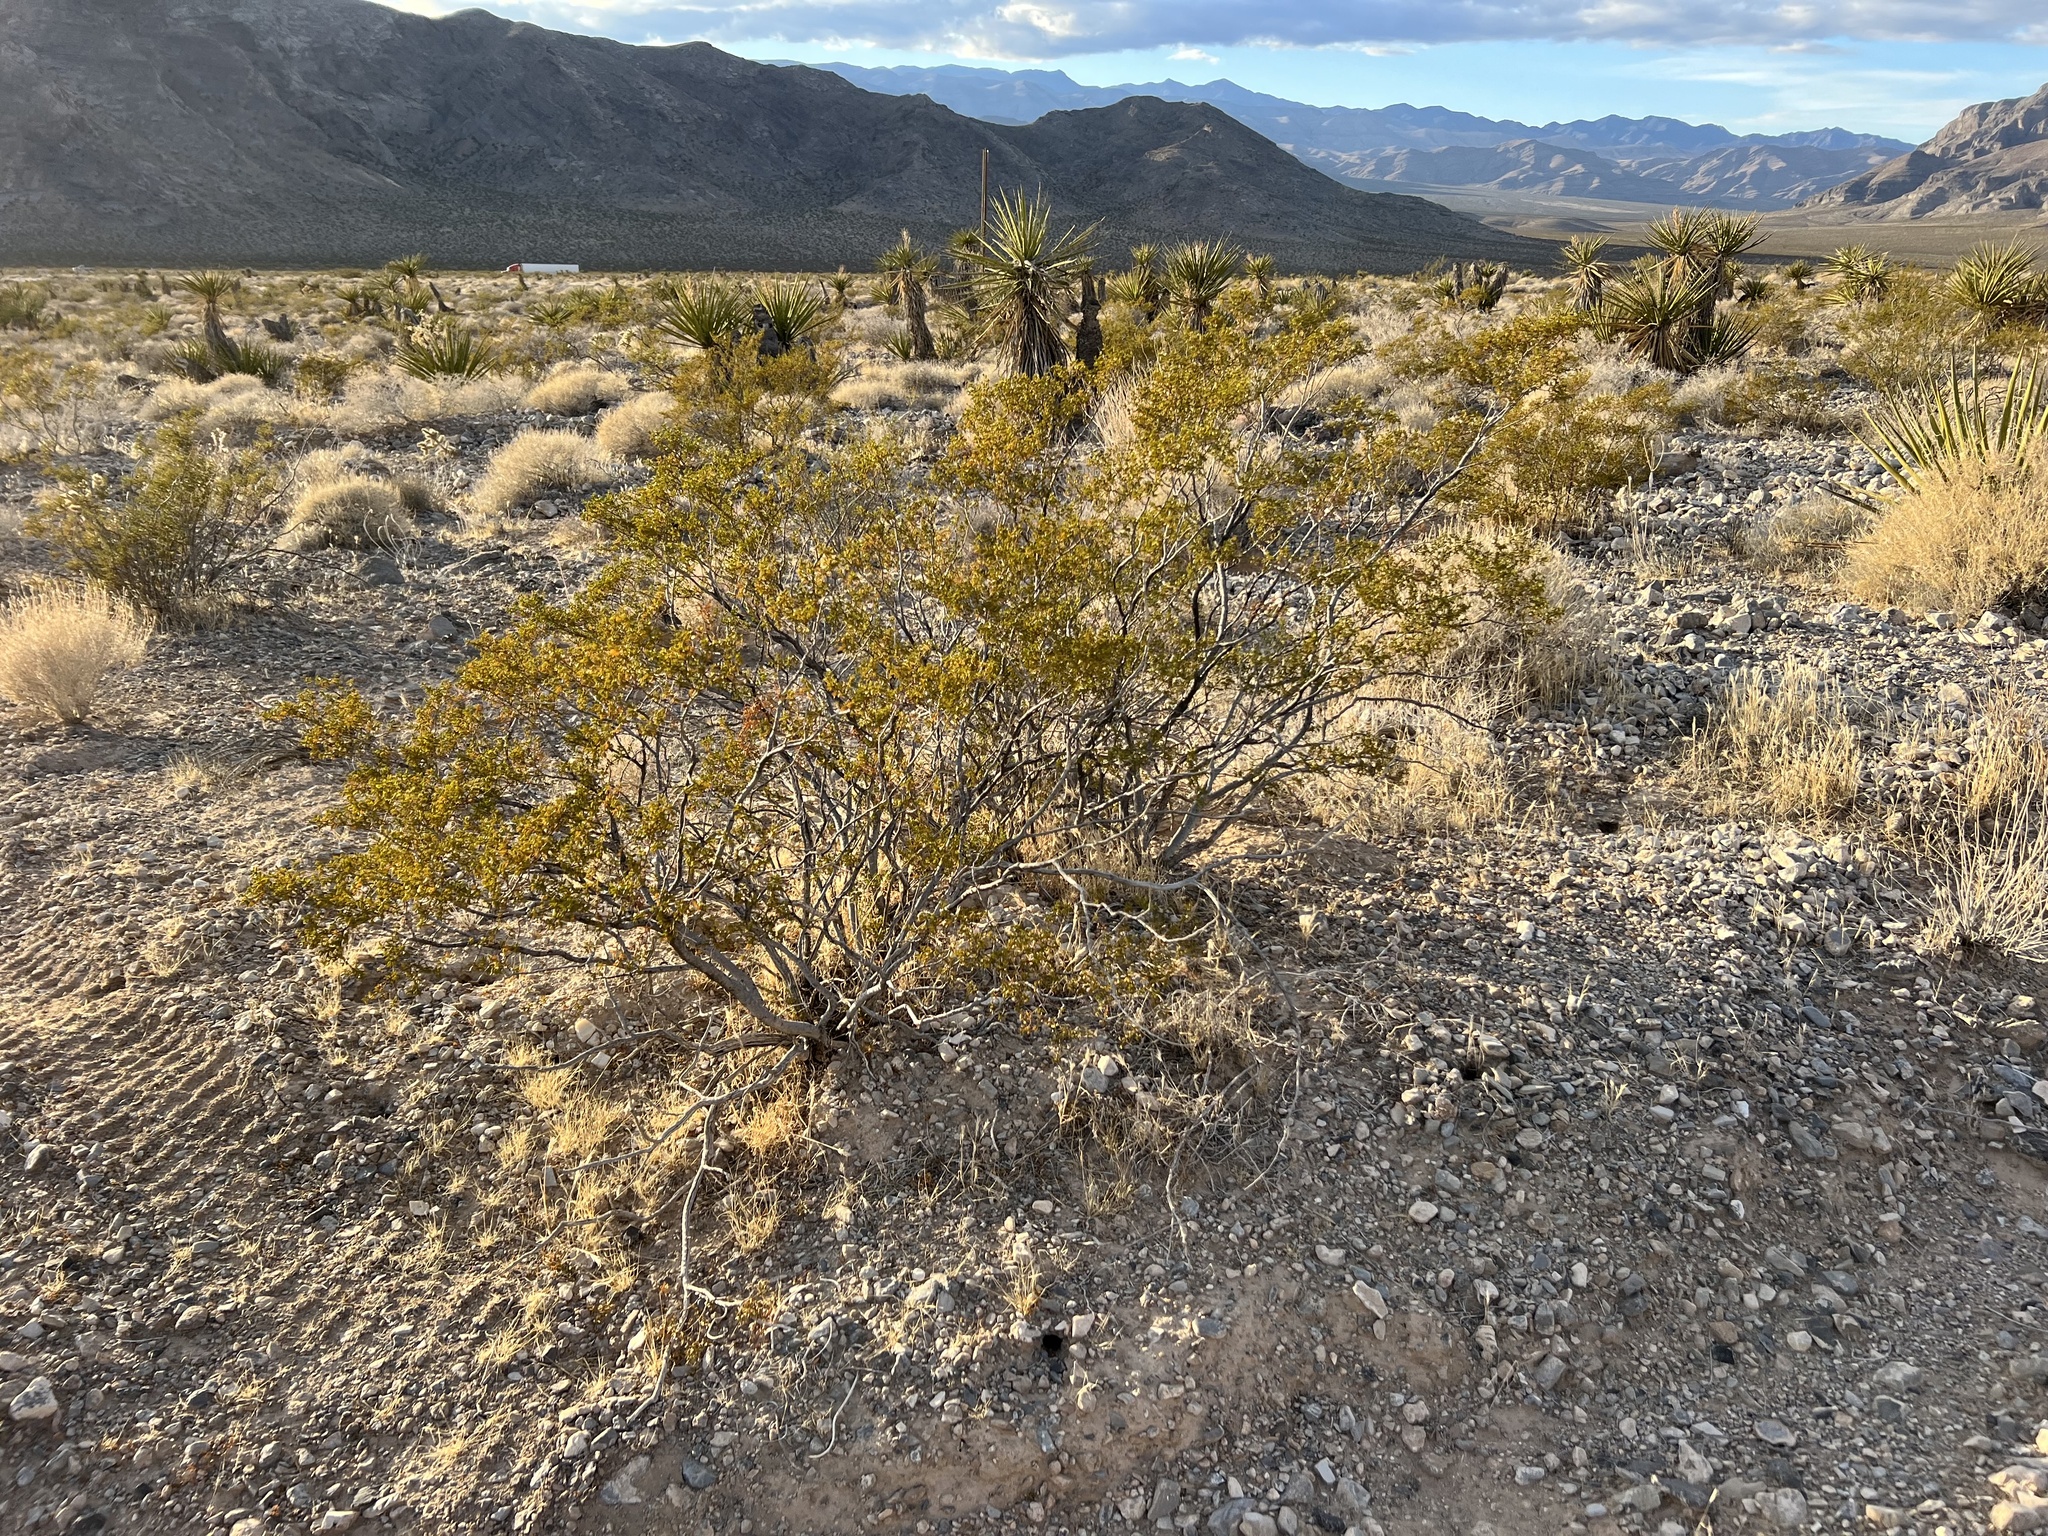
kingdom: Plantae
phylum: Tracheophyta
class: Magnoliopsida
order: Zygophyllales
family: Zygophyllaceae
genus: Larrea
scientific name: Larrea tridentata
